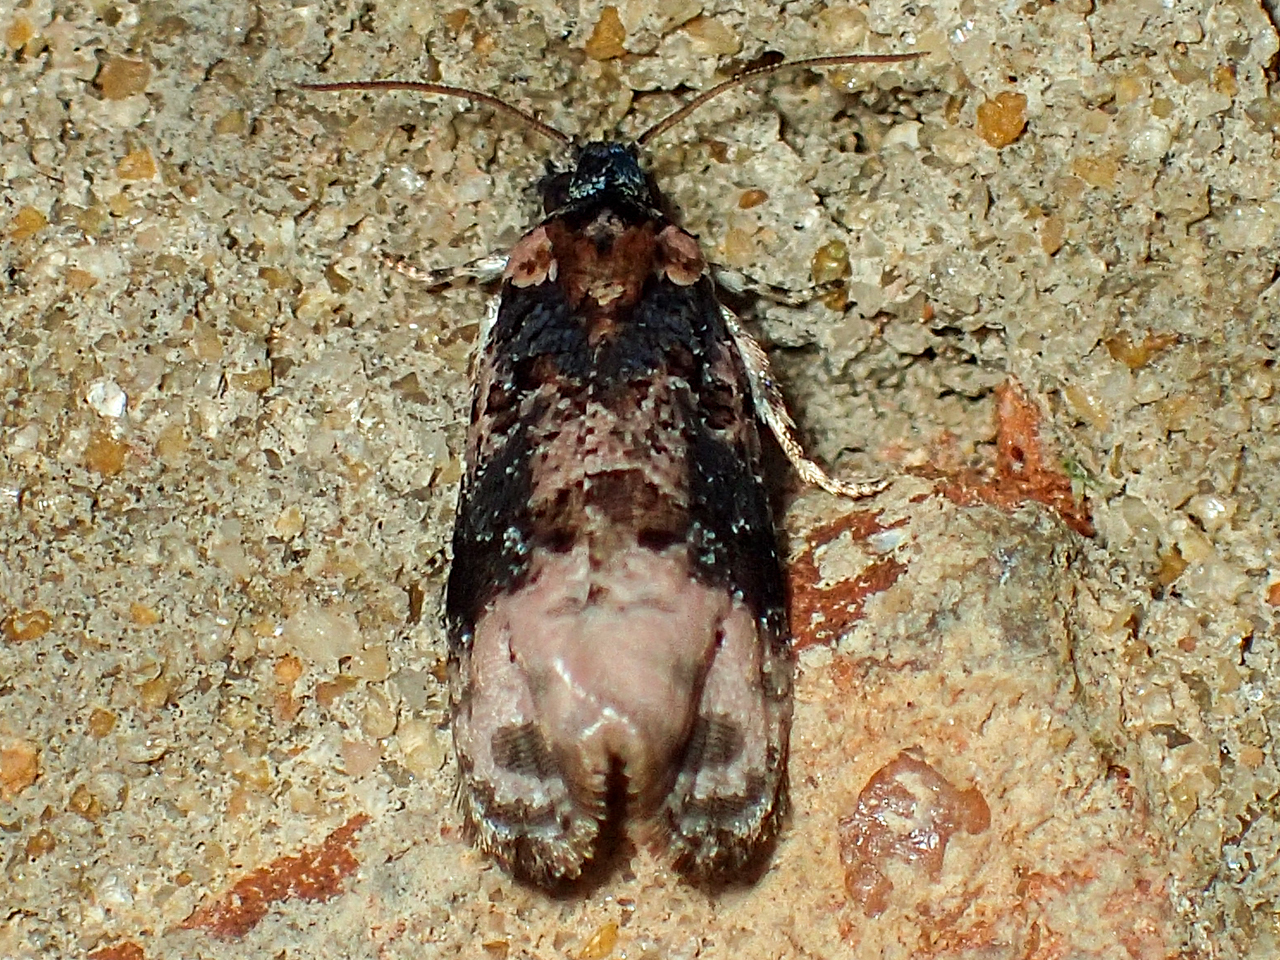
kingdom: Animalia
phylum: Arthropoda
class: Insecta
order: Lepidoptera
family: Tortricidae
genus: Hedya
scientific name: Hedya separatana
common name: Pink-washed leafroller moth
